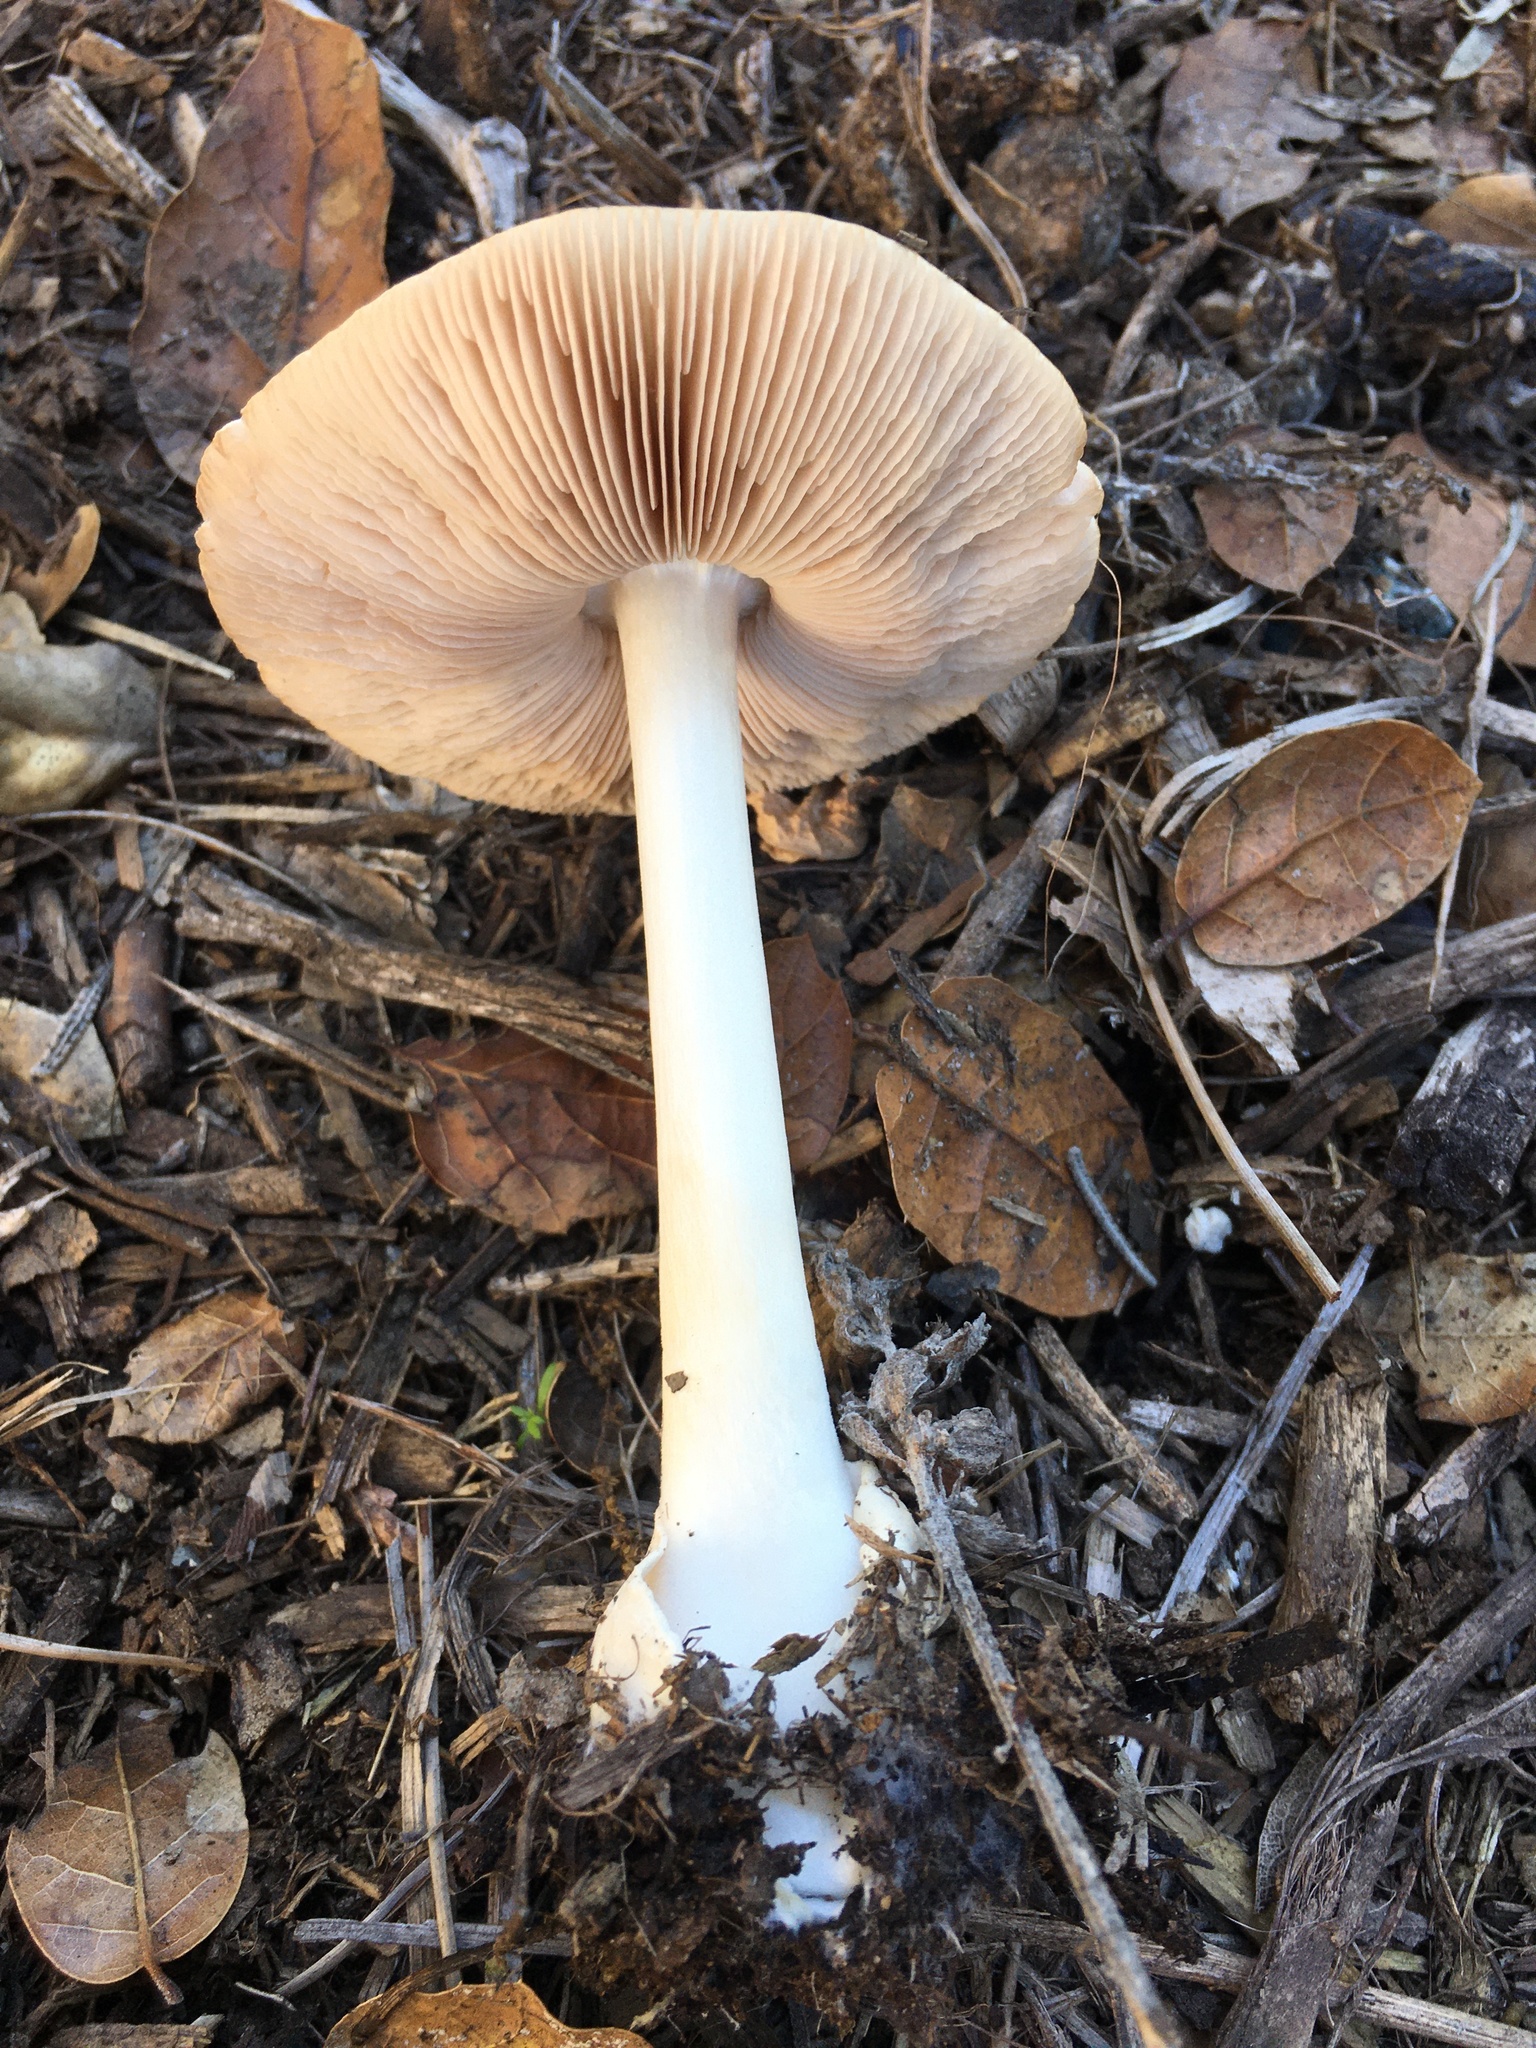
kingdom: Fungi
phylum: Basidiomycota
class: Agaricomycetes
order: Agaricales
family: Pluteaceae
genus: Volvopluteus
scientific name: Volvopluteus gloiocephalus
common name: Stubble rosegill
